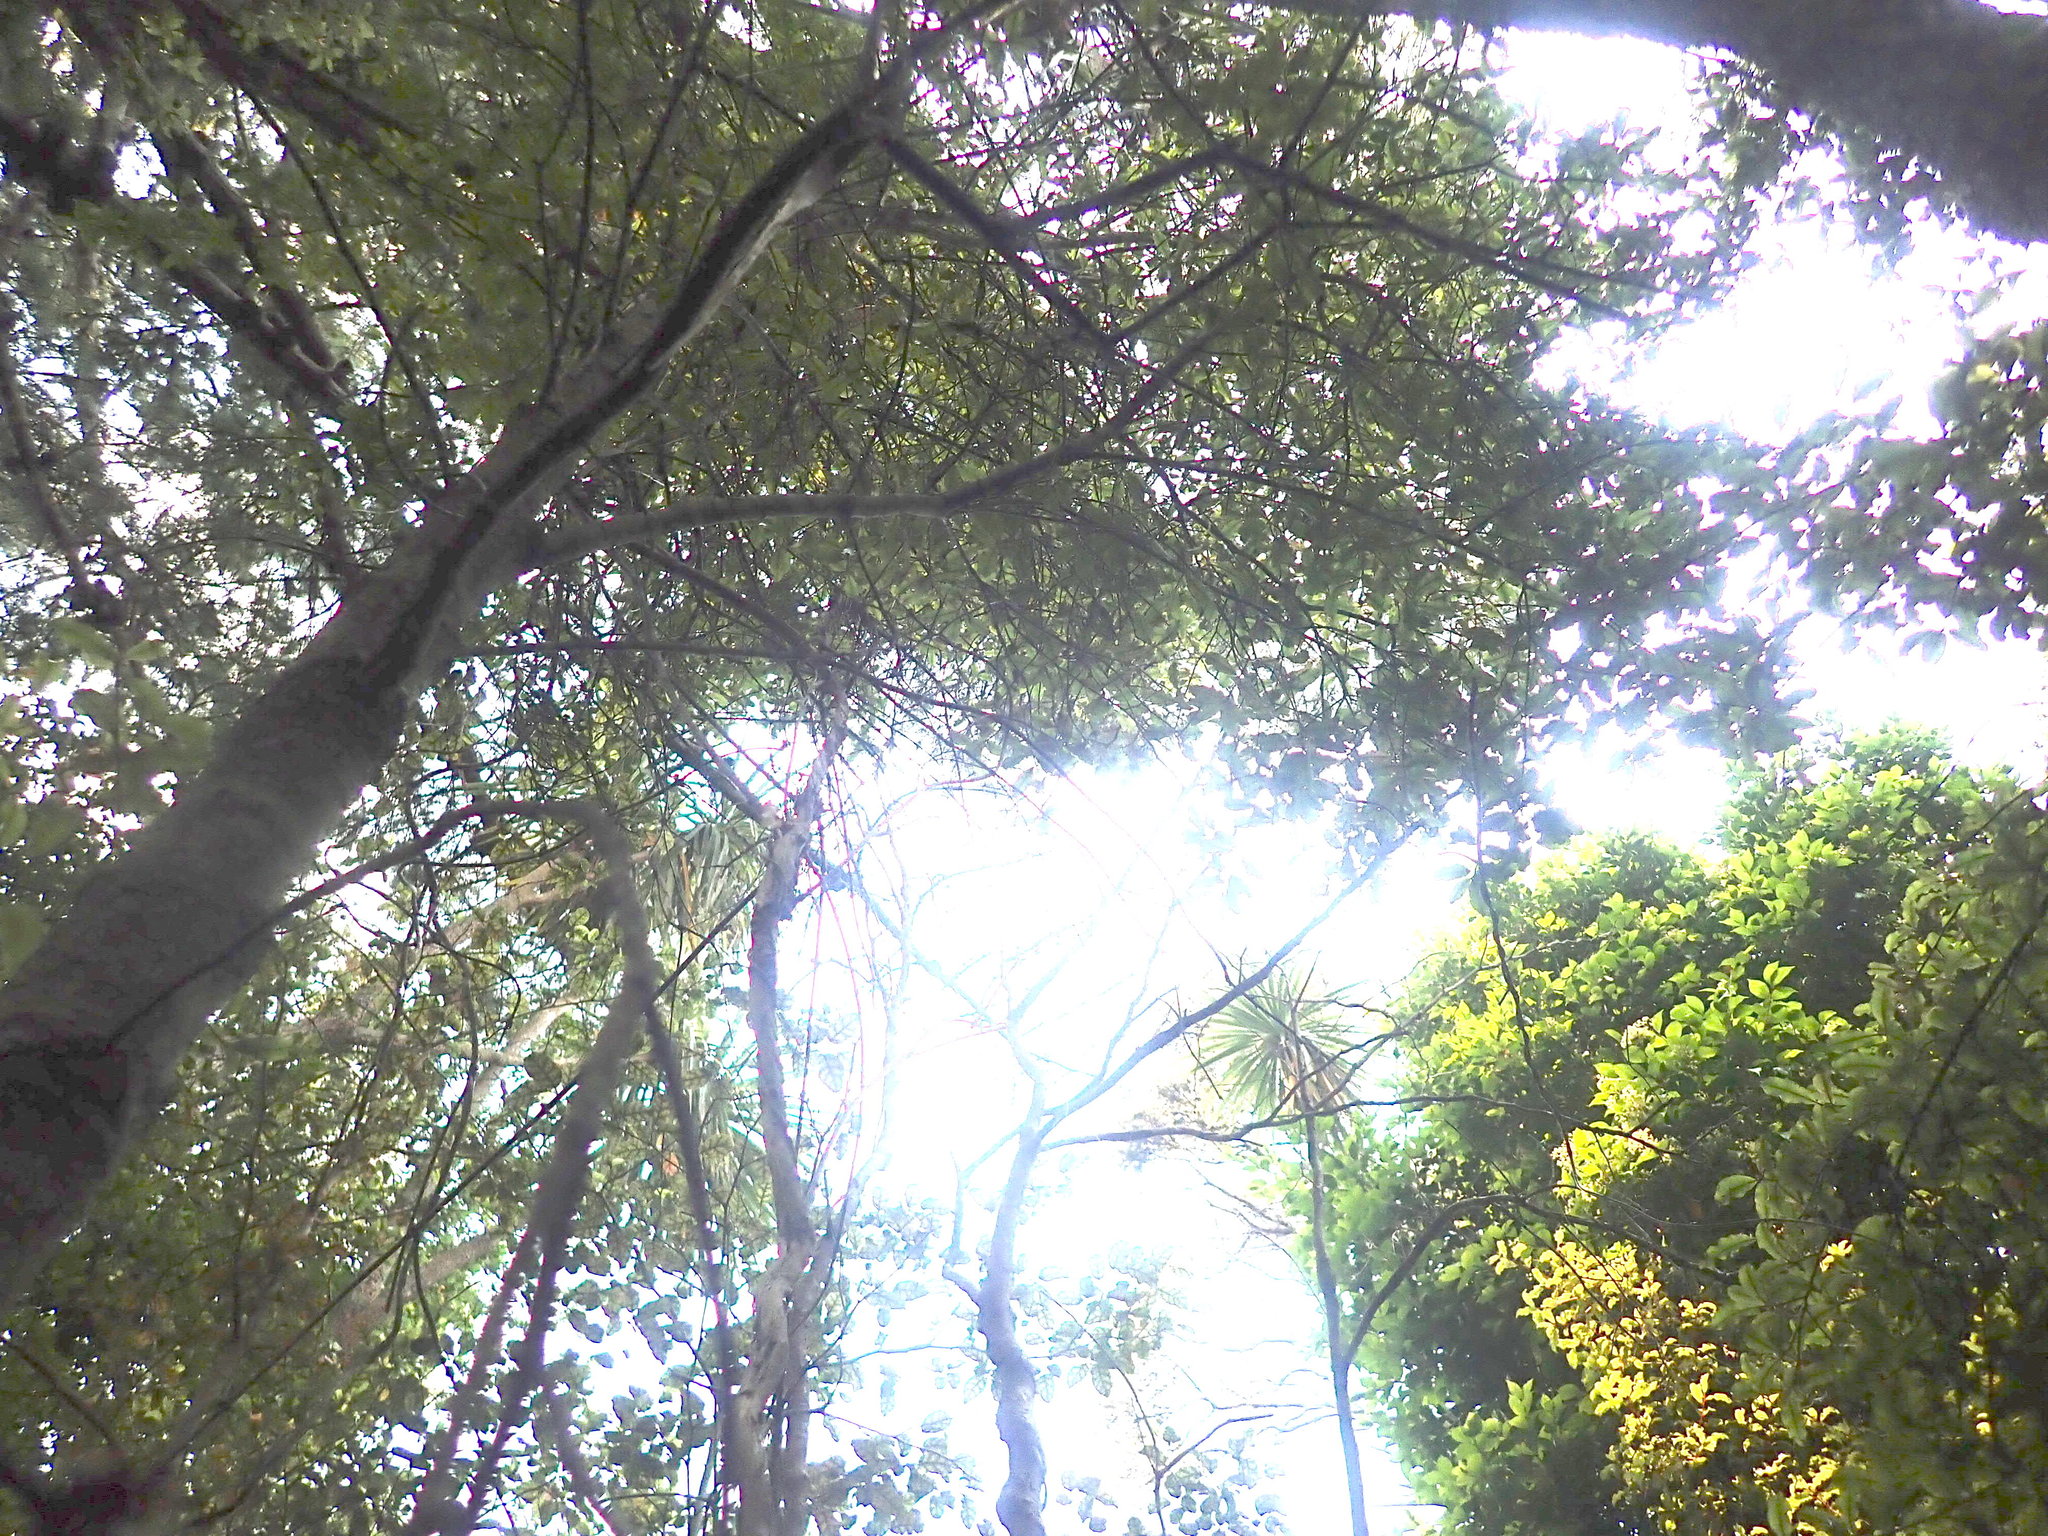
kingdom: Plantae
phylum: Tracheophyta
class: Magnoliopsida
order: Ericales
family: Primulaceae
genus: Myrsine
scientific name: Myrsine australis
